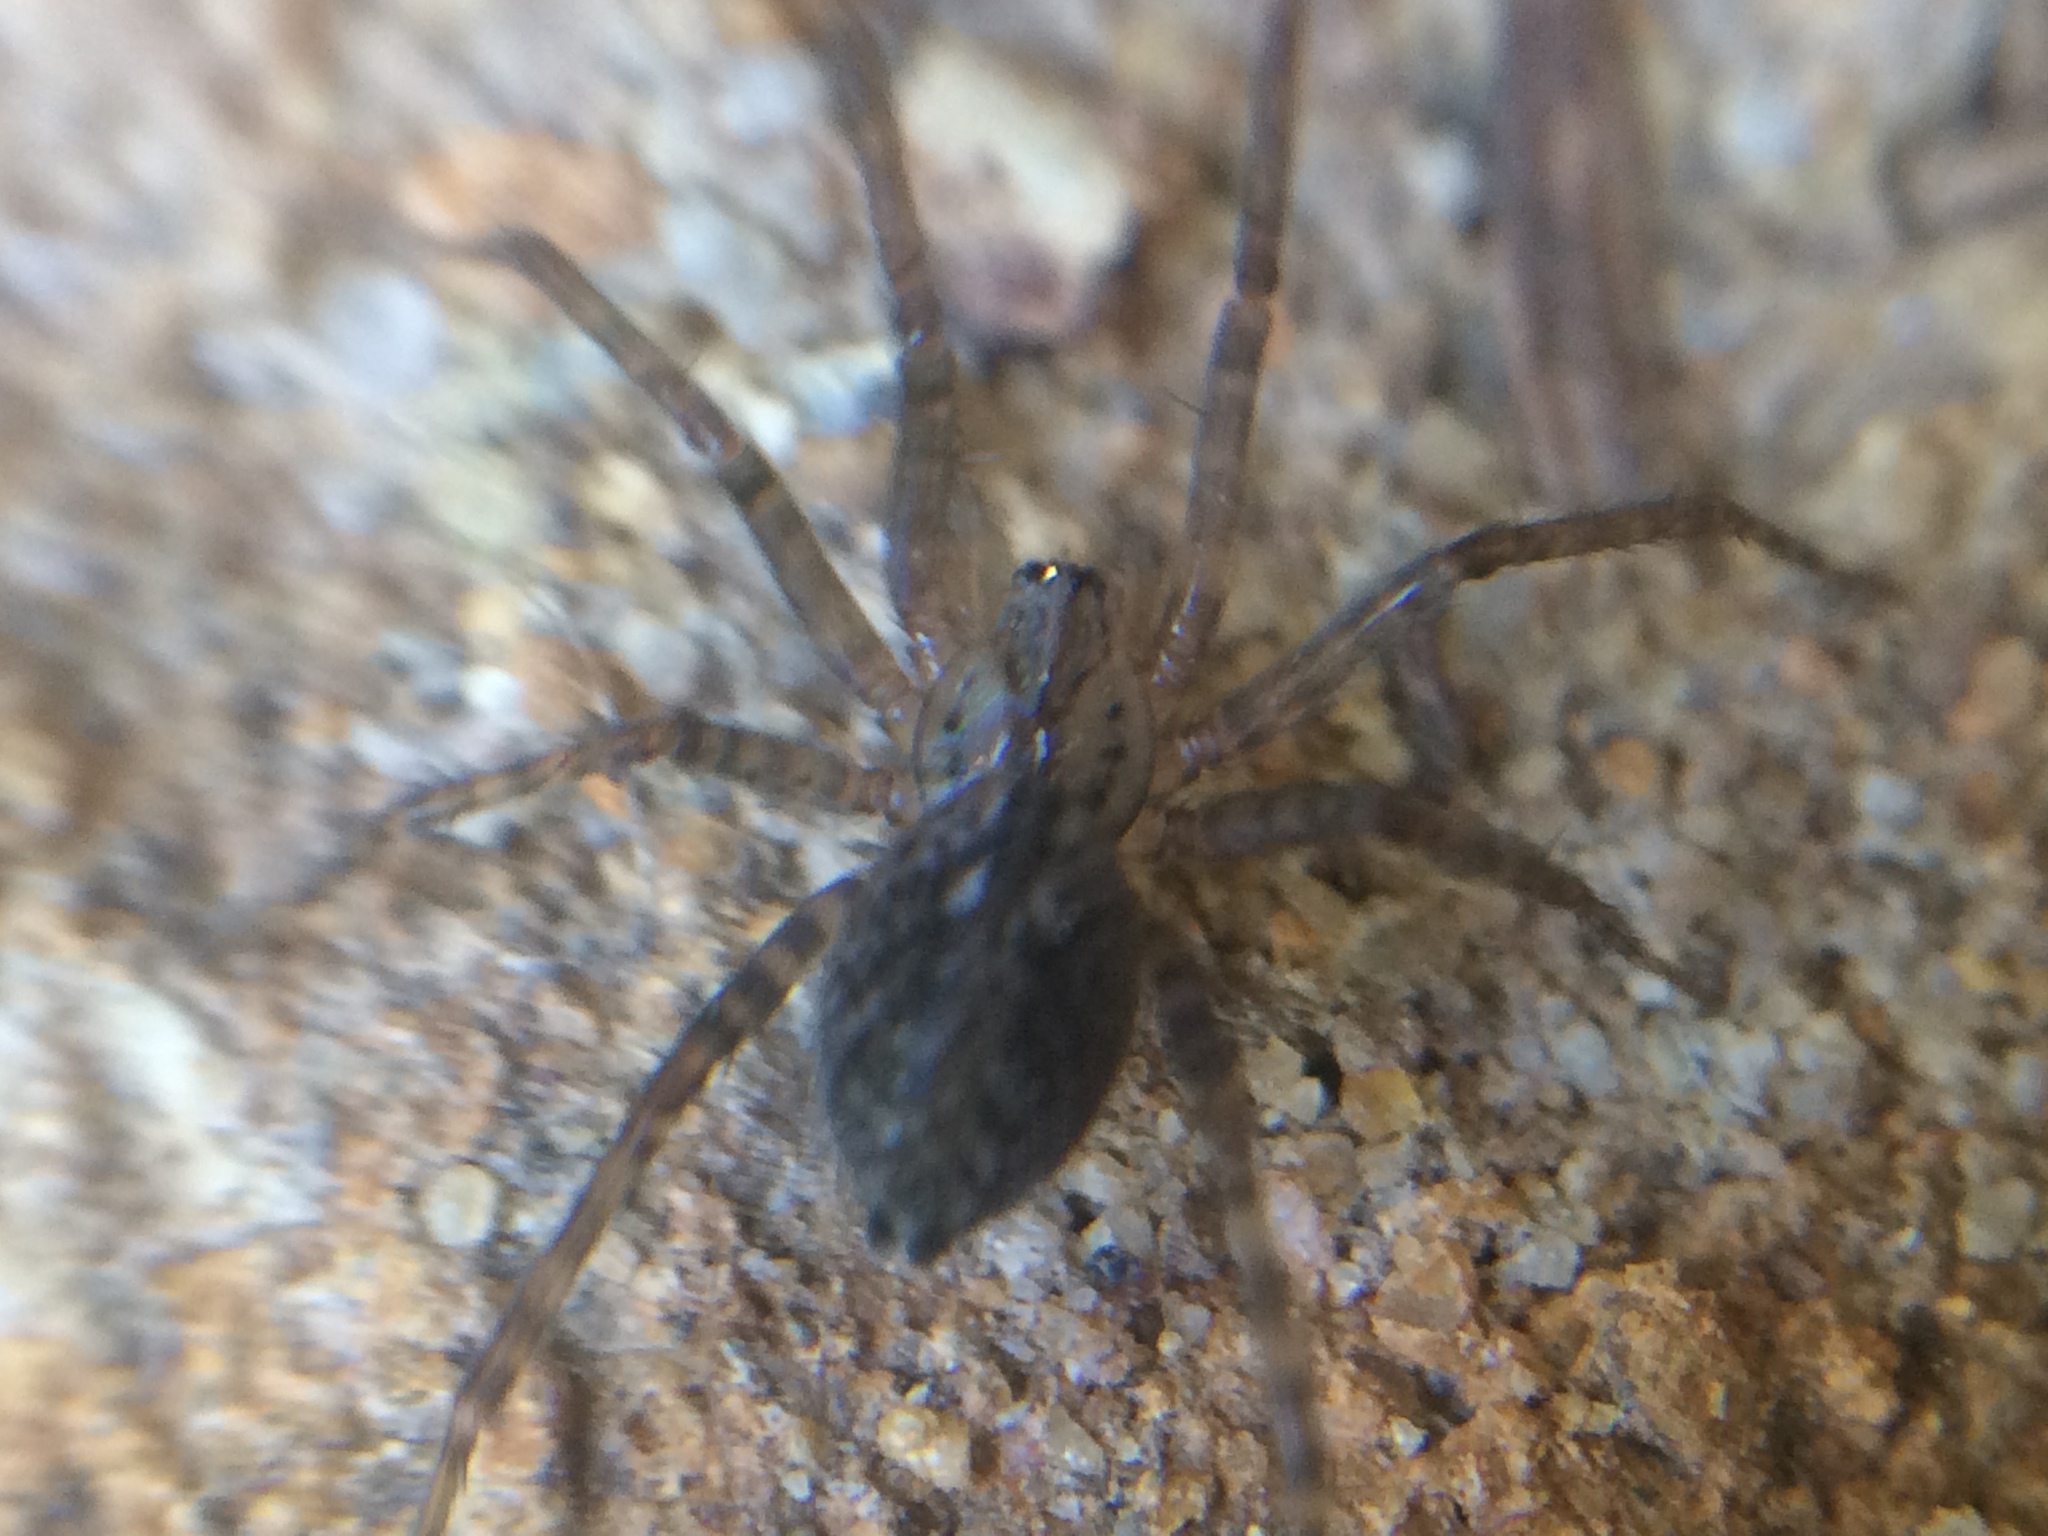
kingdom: Animalia
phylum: Arthropoda
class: Arachnida
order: Araneae
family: Cybaeidae
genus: Calymmaria
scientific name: Calymmaria
